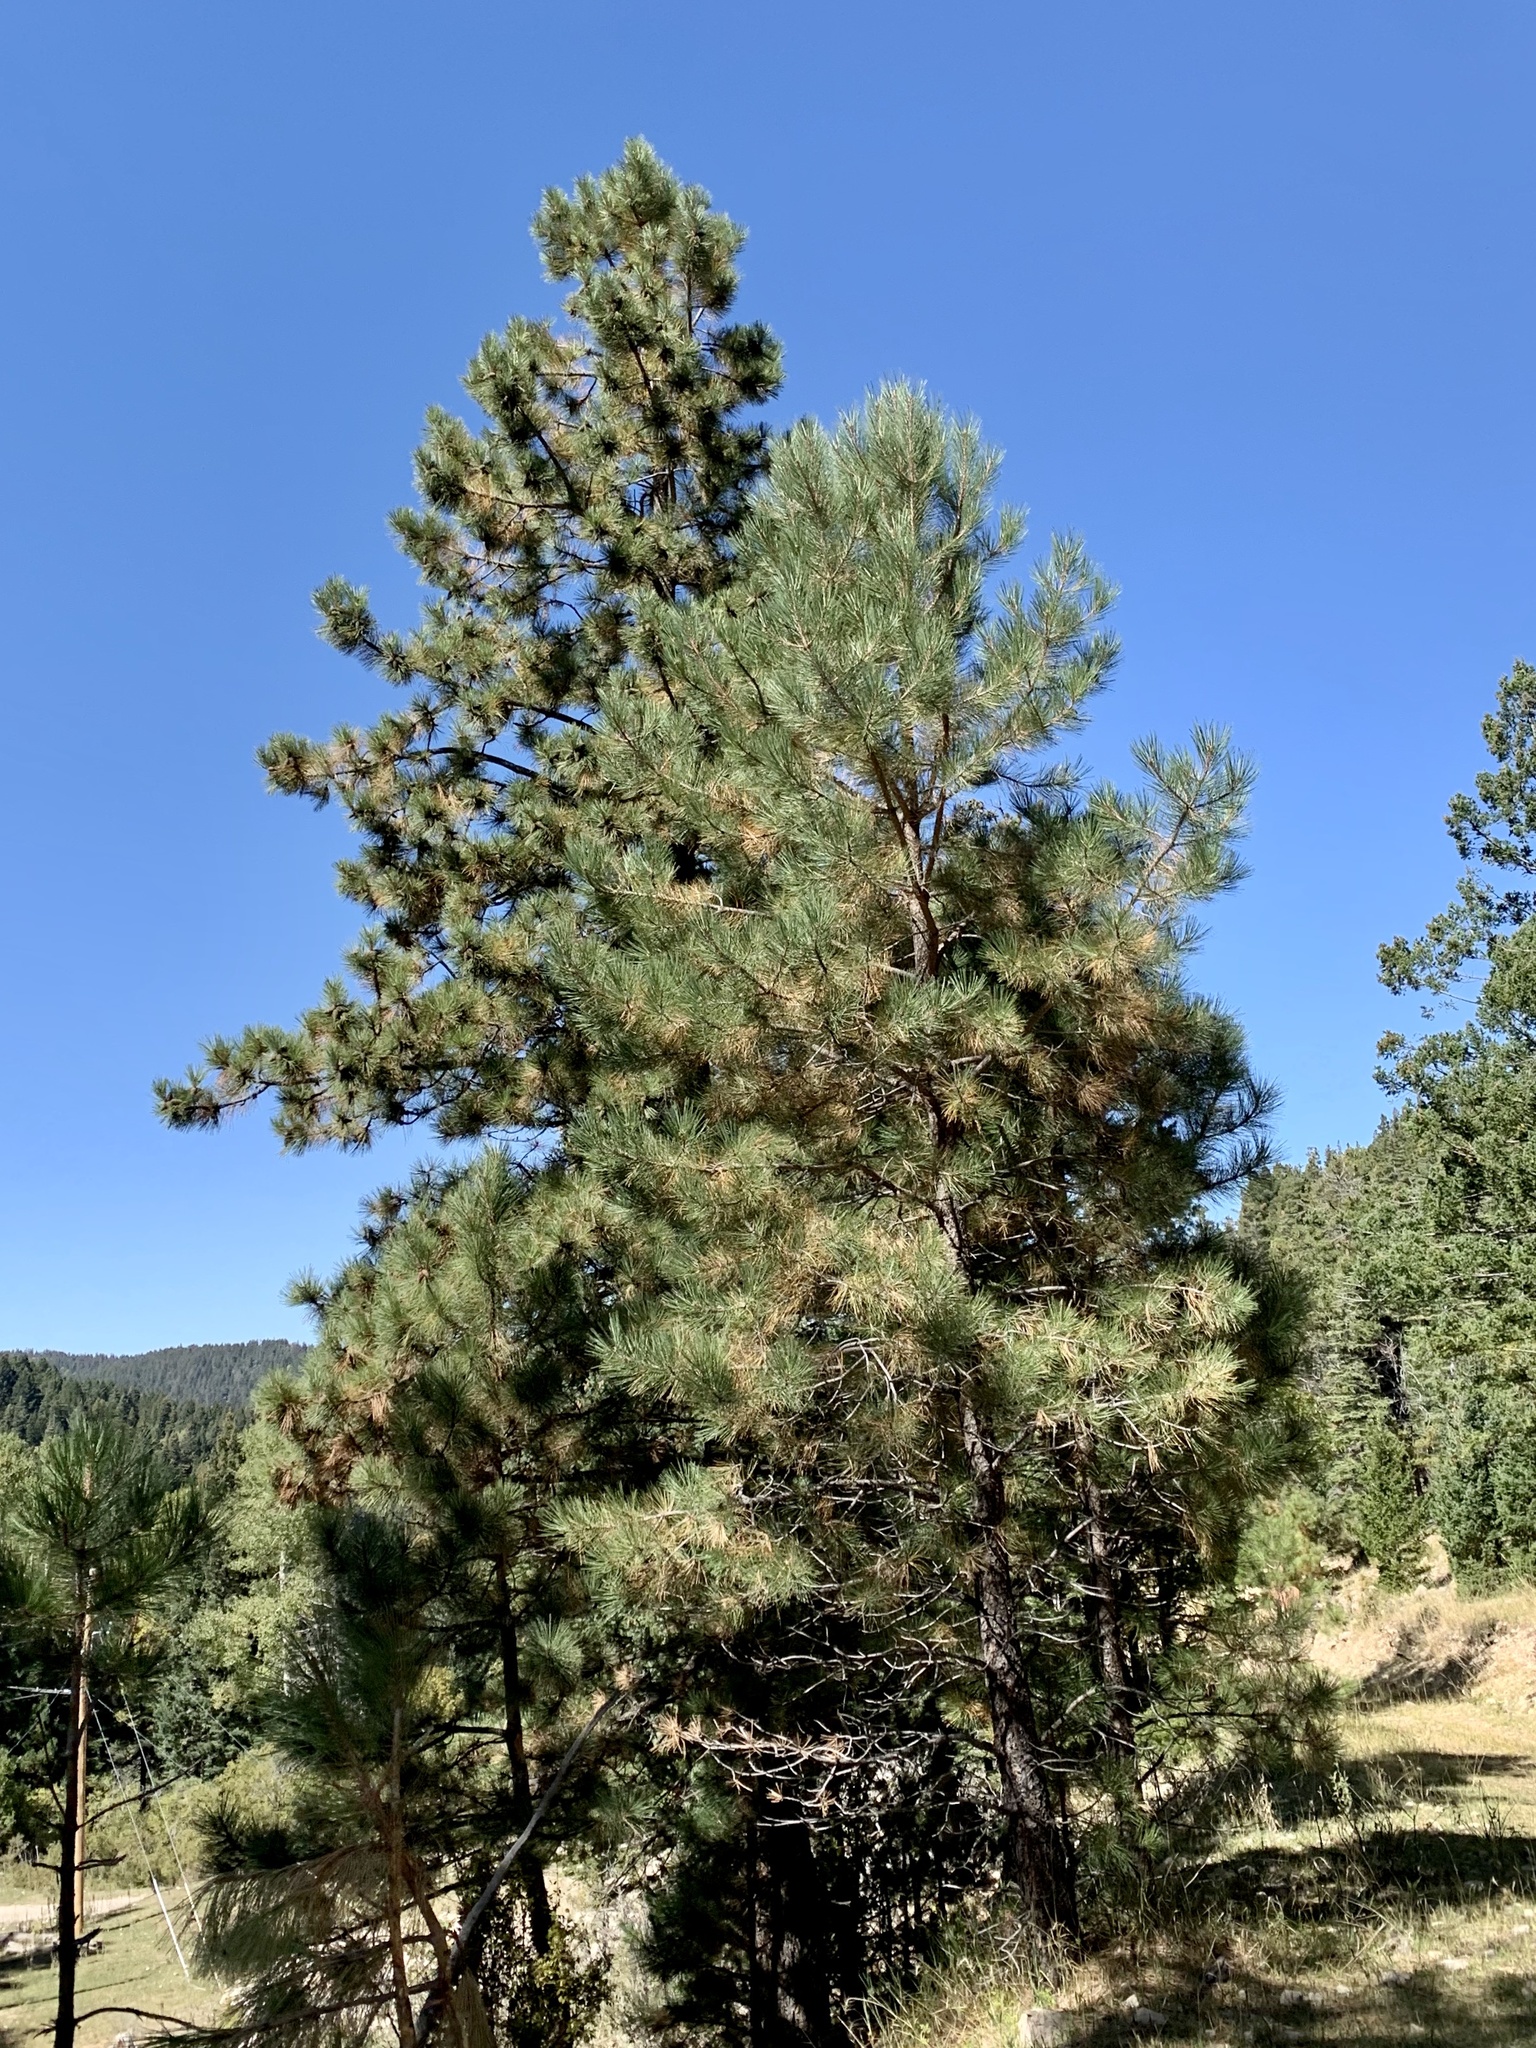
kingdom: Plantae
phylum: Tracheophyta
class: Pinopsida
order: Pinales
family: Pinaceae
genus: Pinus
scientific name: Pinus ponderosa
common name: Western yellow-pine
